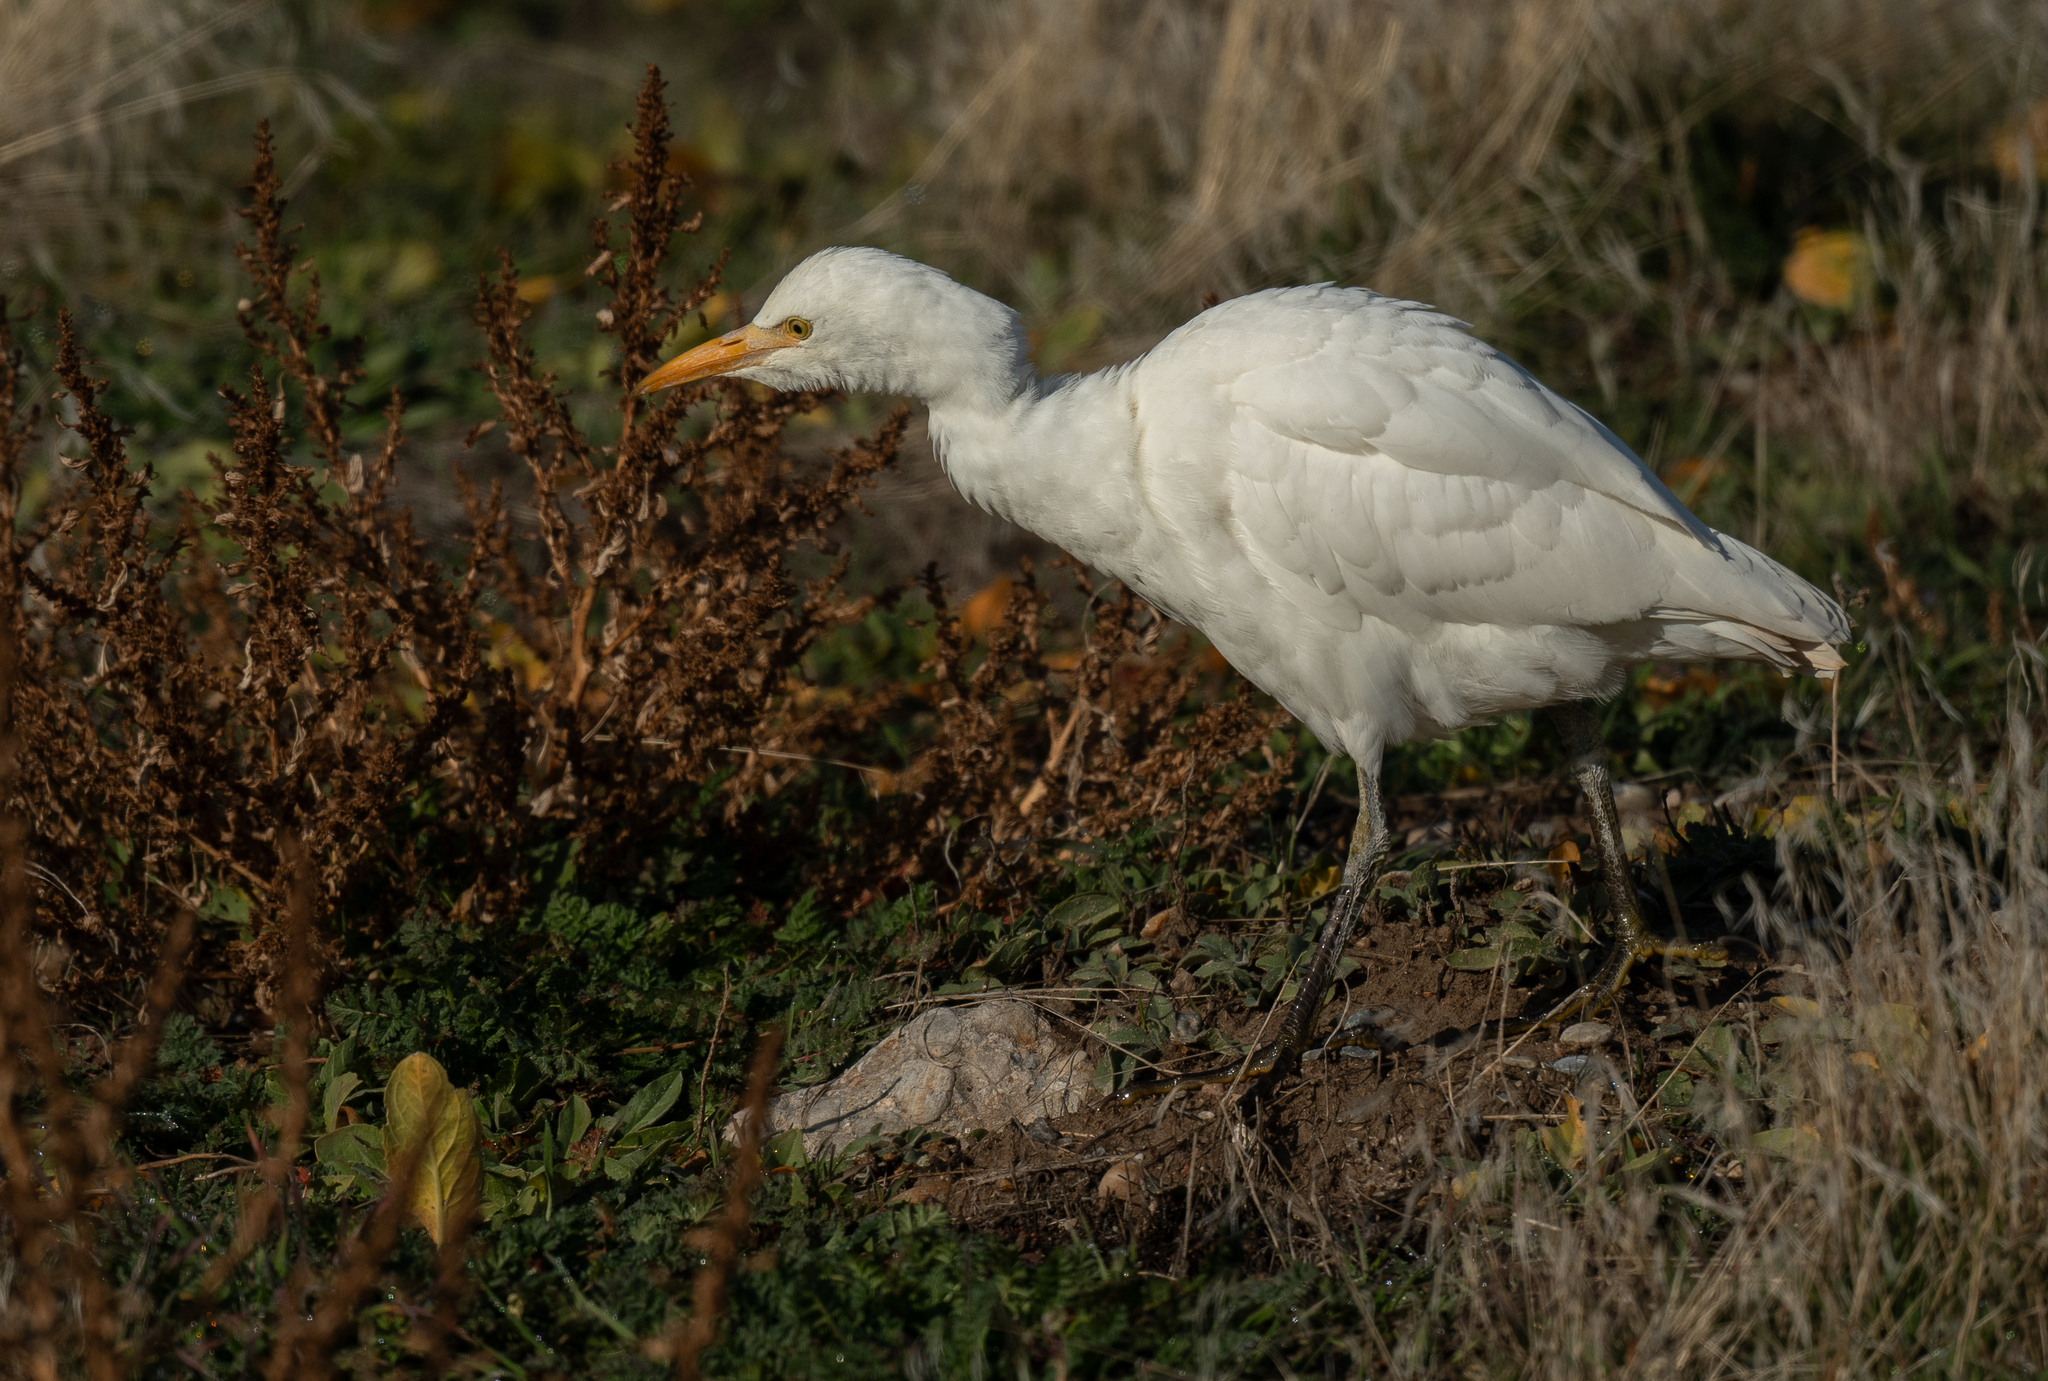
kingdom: Animalia
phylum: Chordata
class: Aves
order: Pelecaniformes
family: Ardeidae
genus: Bubulcus
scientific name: Bubulcus ibis
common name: Cattle egret
